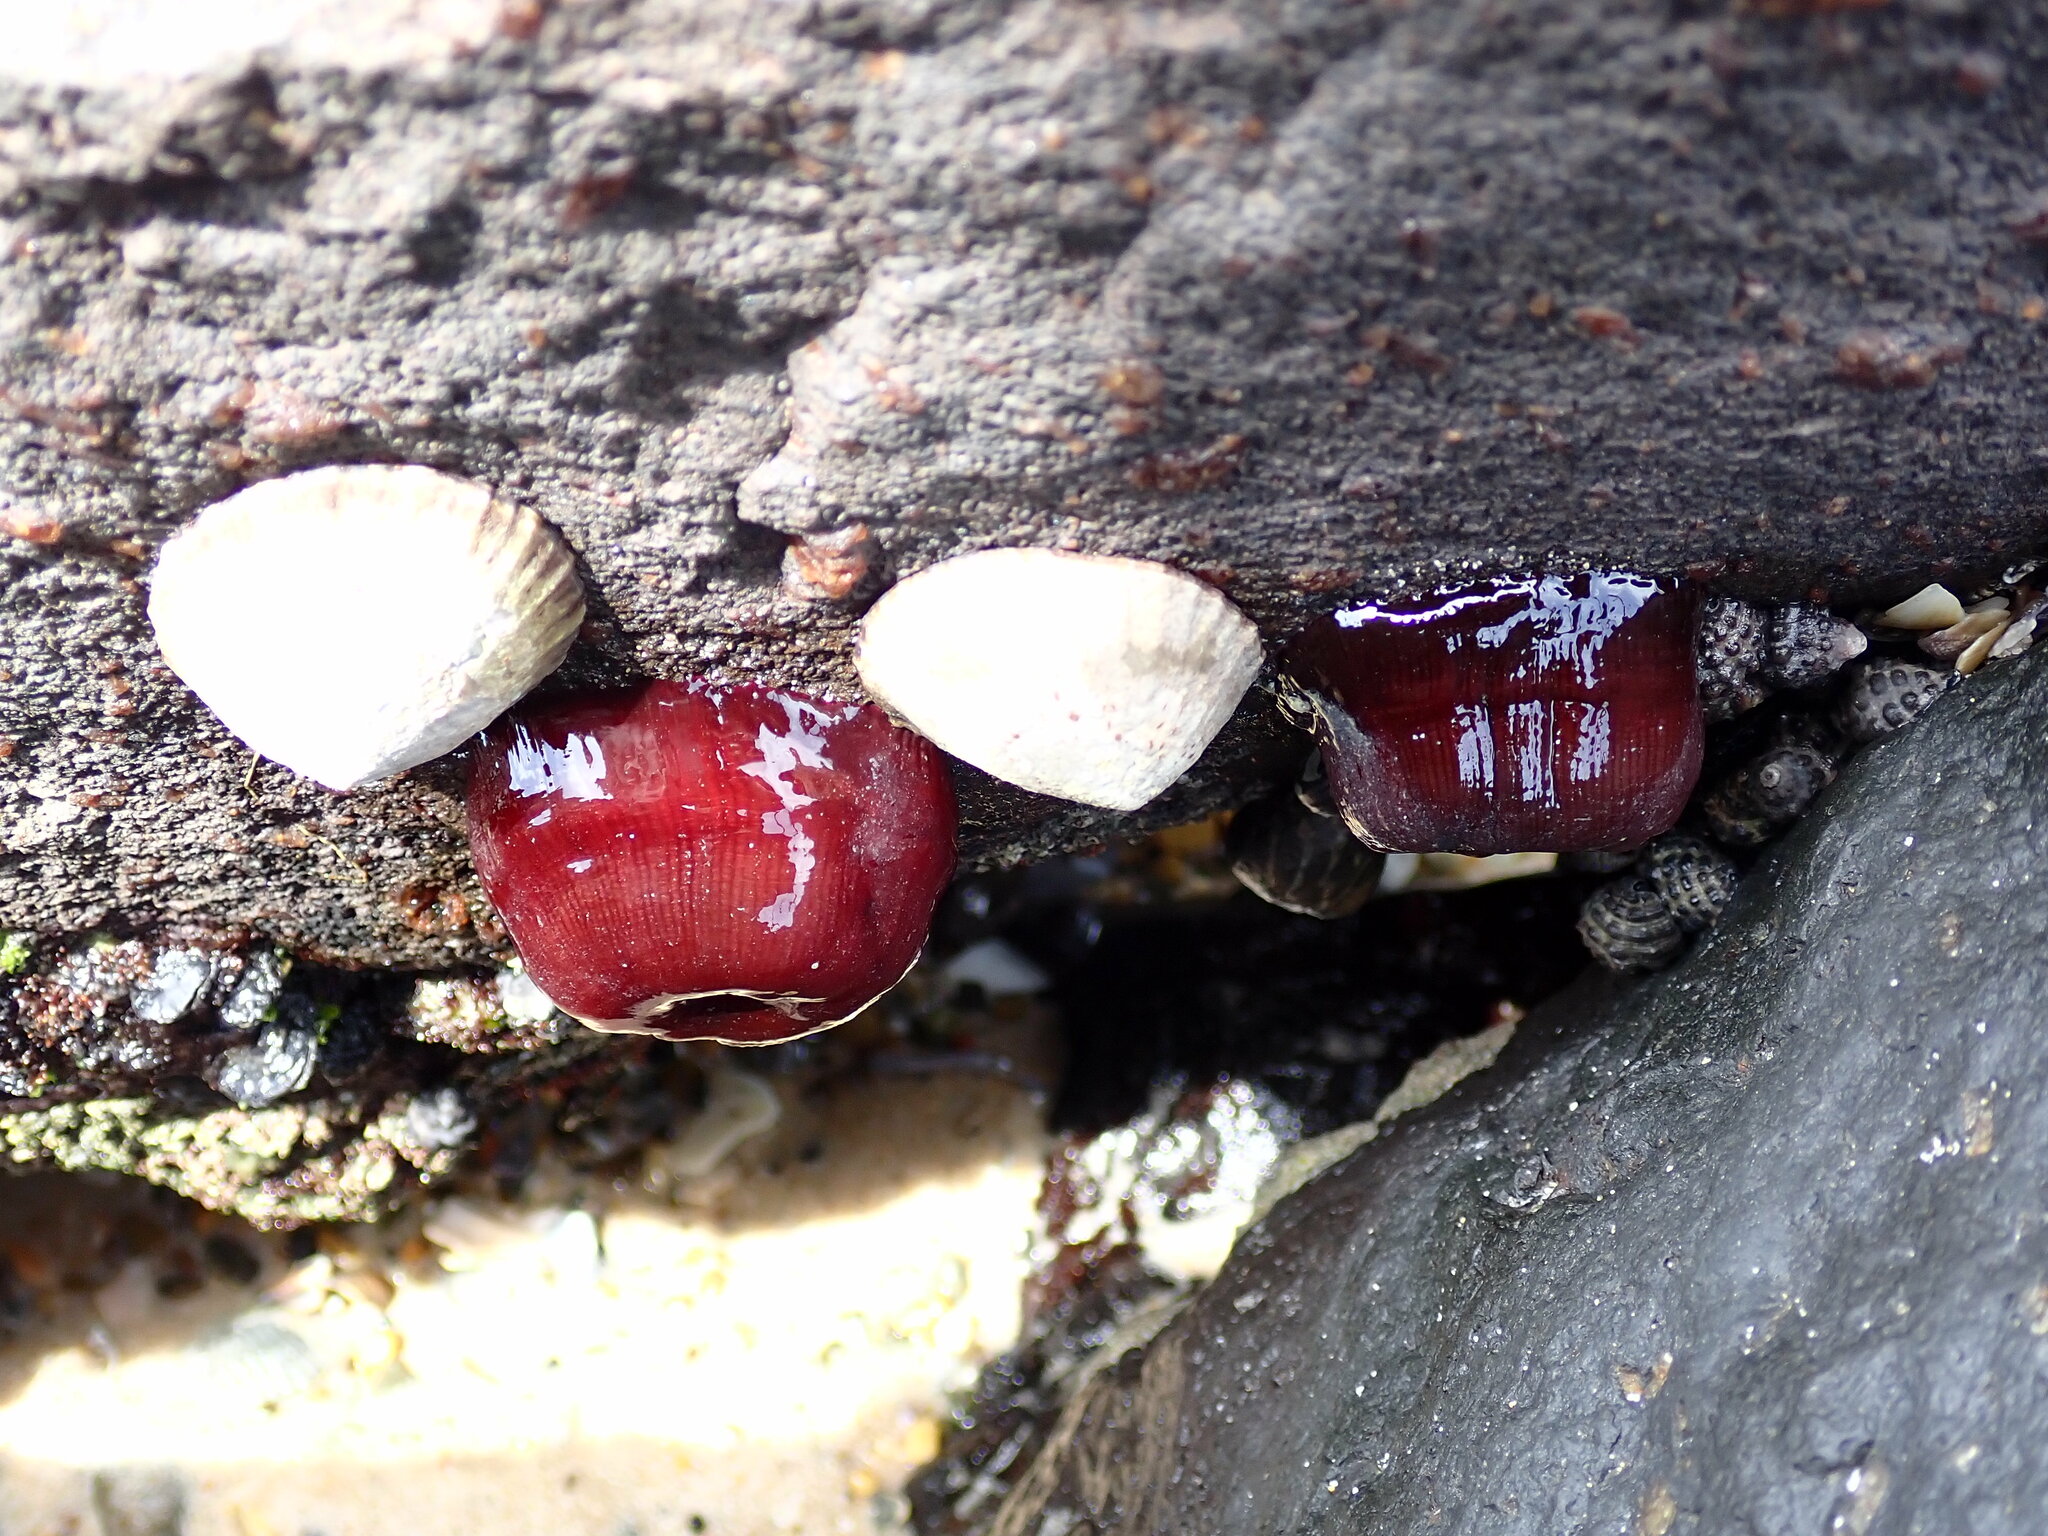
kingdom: Animalia
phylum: Cnidaria
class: Anthozoa
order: Actiniaria
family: Actiniidae
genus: Actinia
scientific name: Actinia tenebrosa
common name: Waratah anemone
